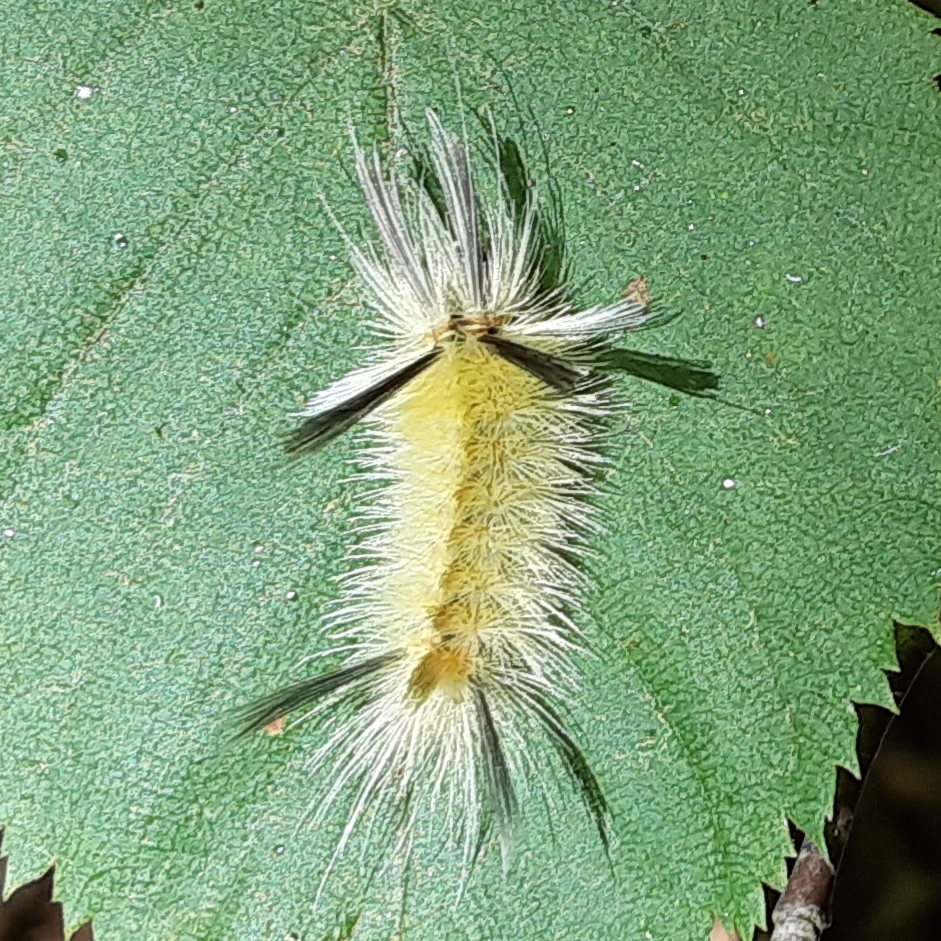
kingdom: Animalia
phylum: Arthropoda
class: Insecta
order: Lepidoptera
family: Erebidae
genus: Halysidota
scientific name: Halysidota tessellaris
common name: Banded tussock moth
